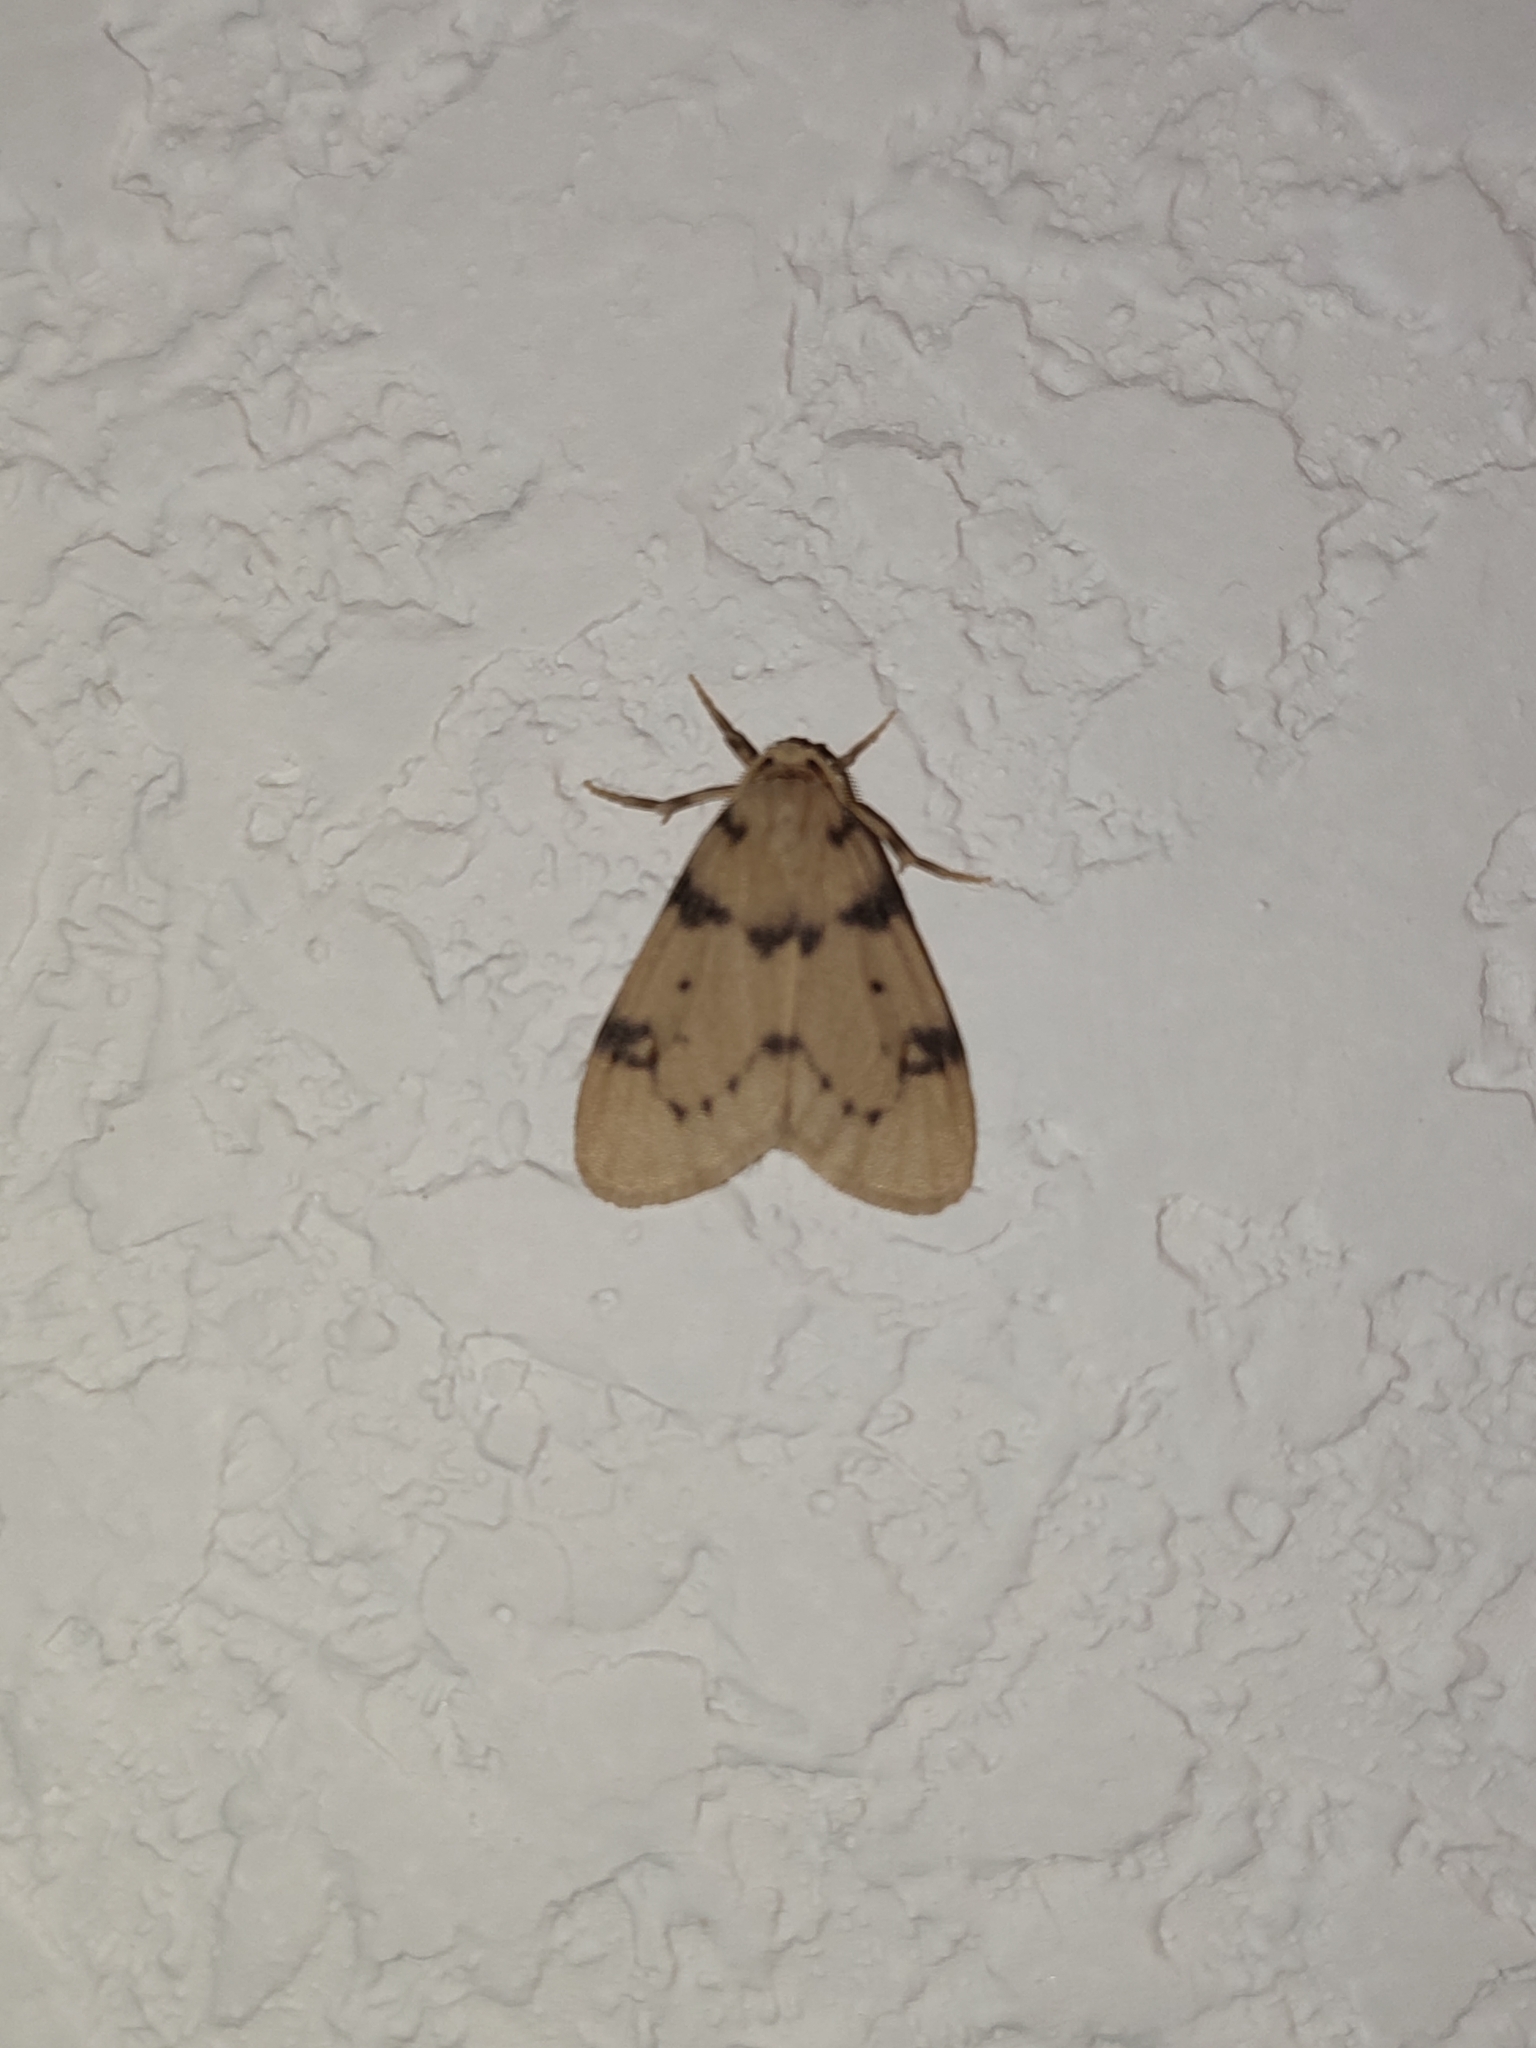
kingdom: Animalia
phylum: Arthropoda
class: Insecta
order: Lepidoptera
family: Erebidae
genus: Paidia
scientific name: Paidia conjuncta
